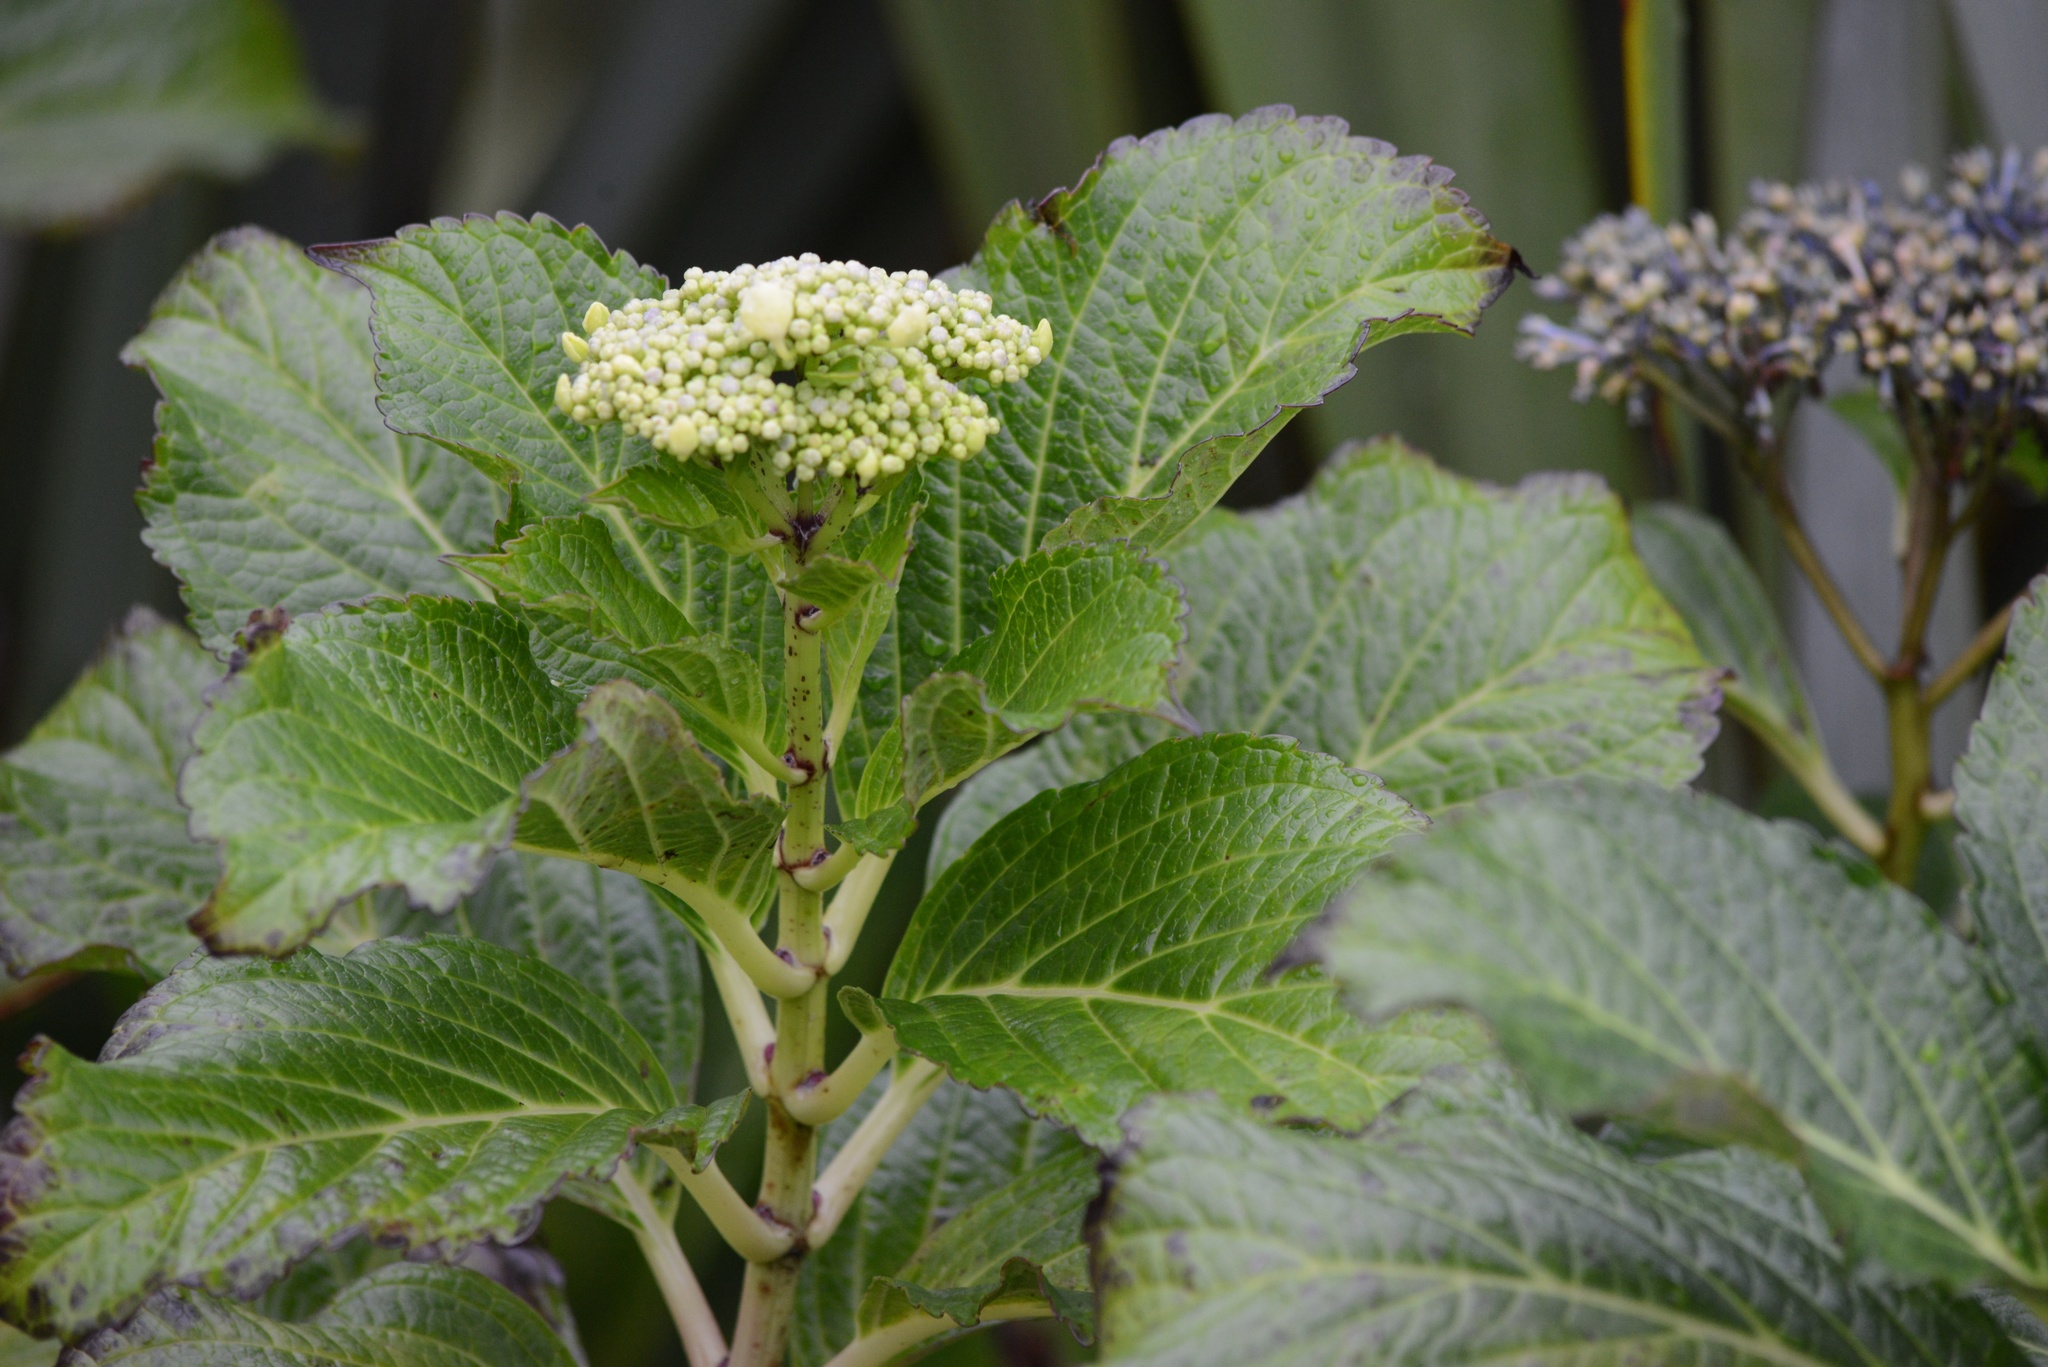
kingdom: Plantae
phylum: Tracheophyta
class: Magnoliopsida
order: Cornales
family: Hydrangeaceae
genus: Hydrangea
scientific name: Hydrangea macrophylla
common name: Hydrangea
